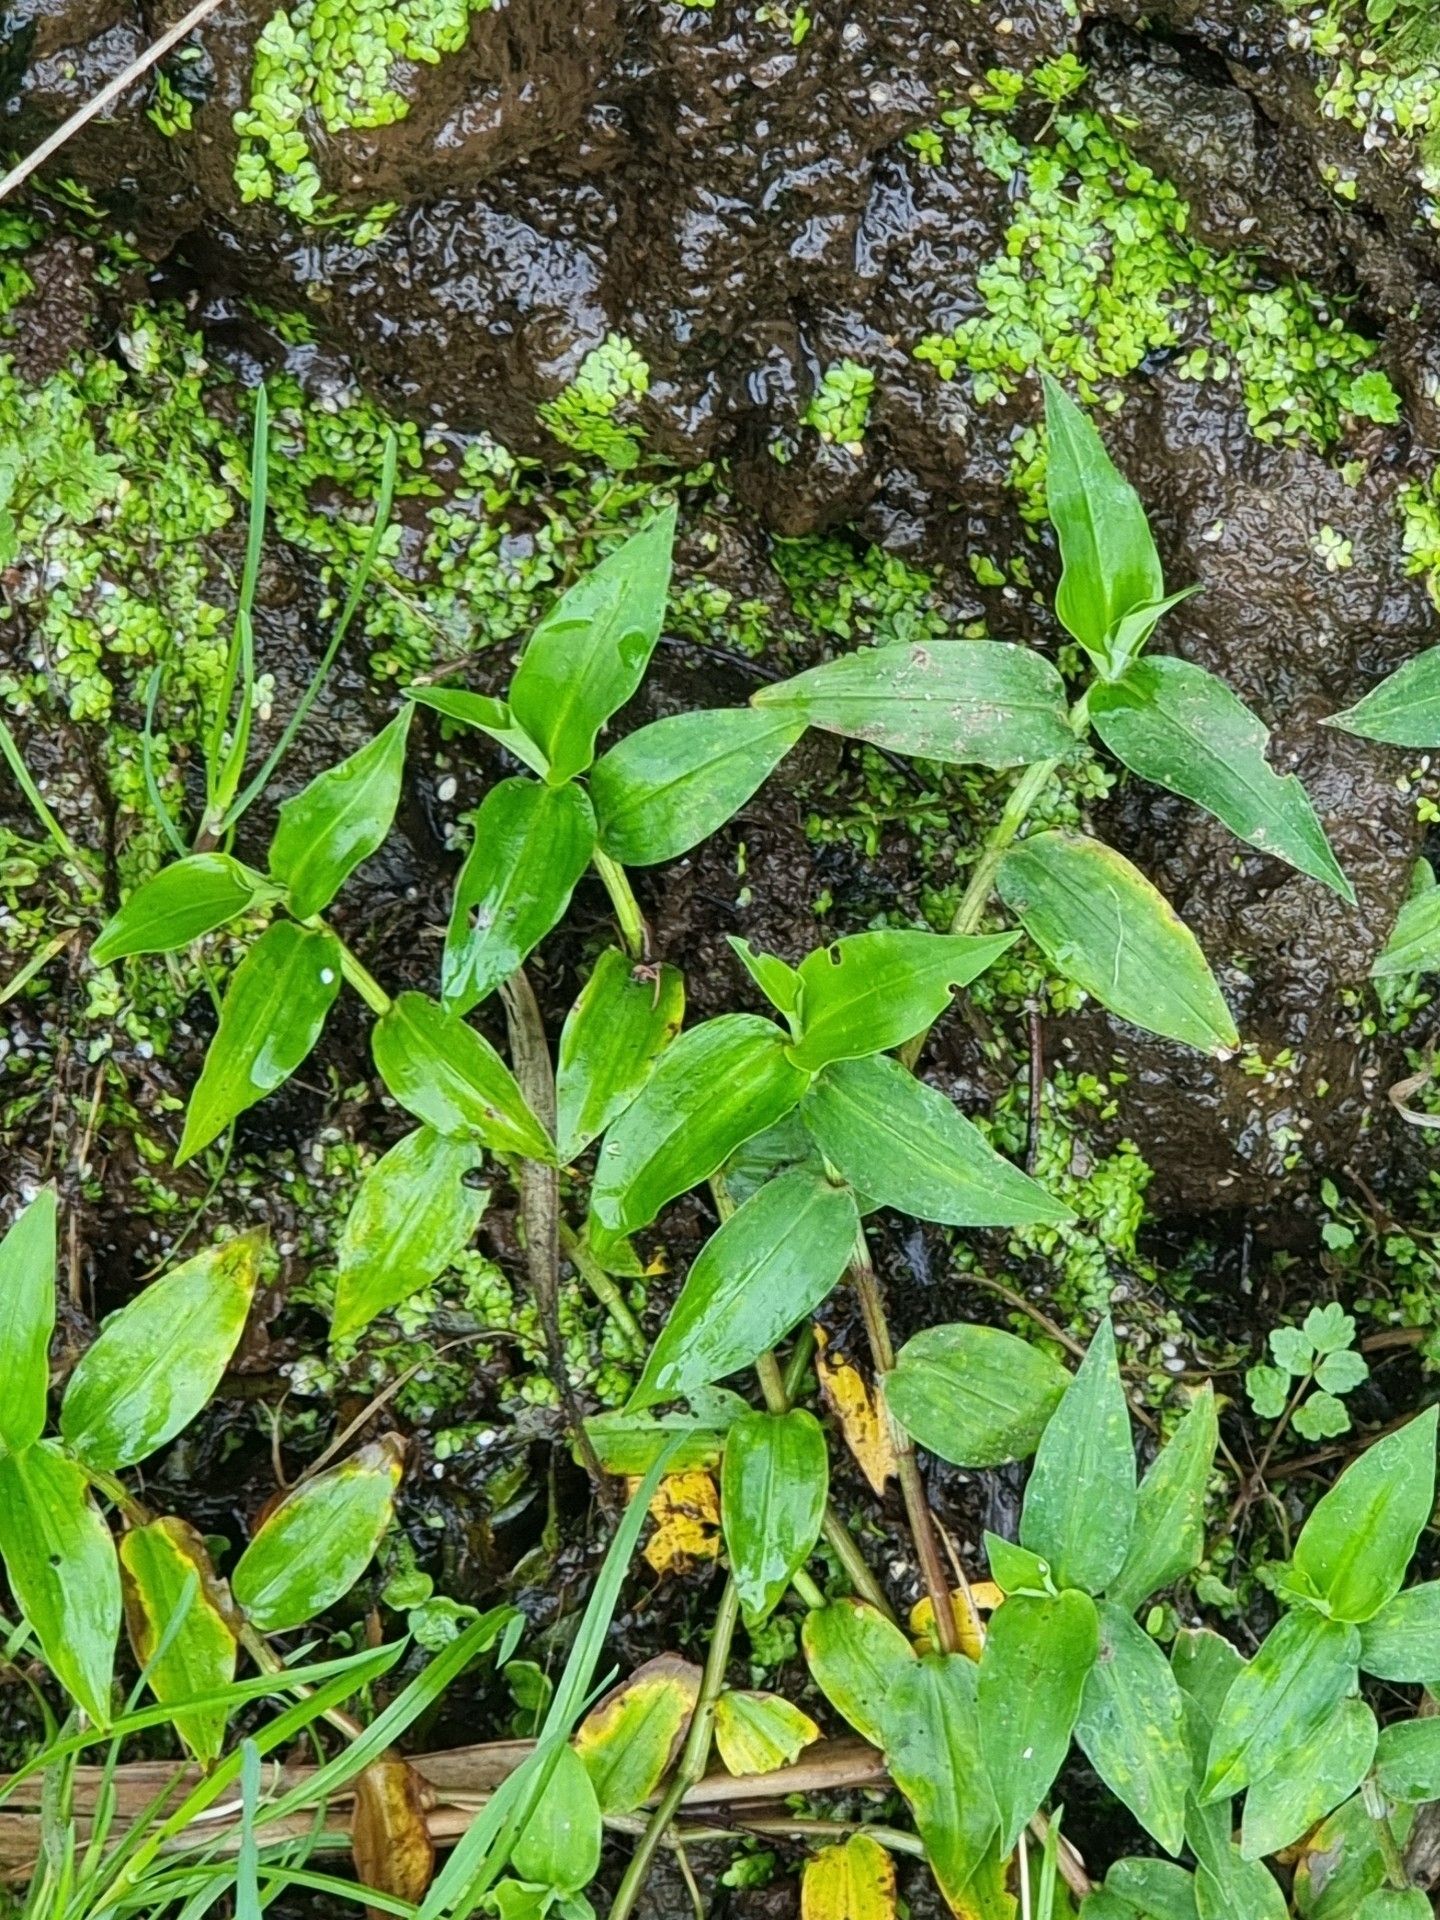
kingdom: Plantae
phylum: Tracheophyta
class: Liliopsida
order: Commelinales
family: Commelinaceae
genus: Tradescantia
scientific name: Tradescantia fluminensis
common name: Wandering-jew
